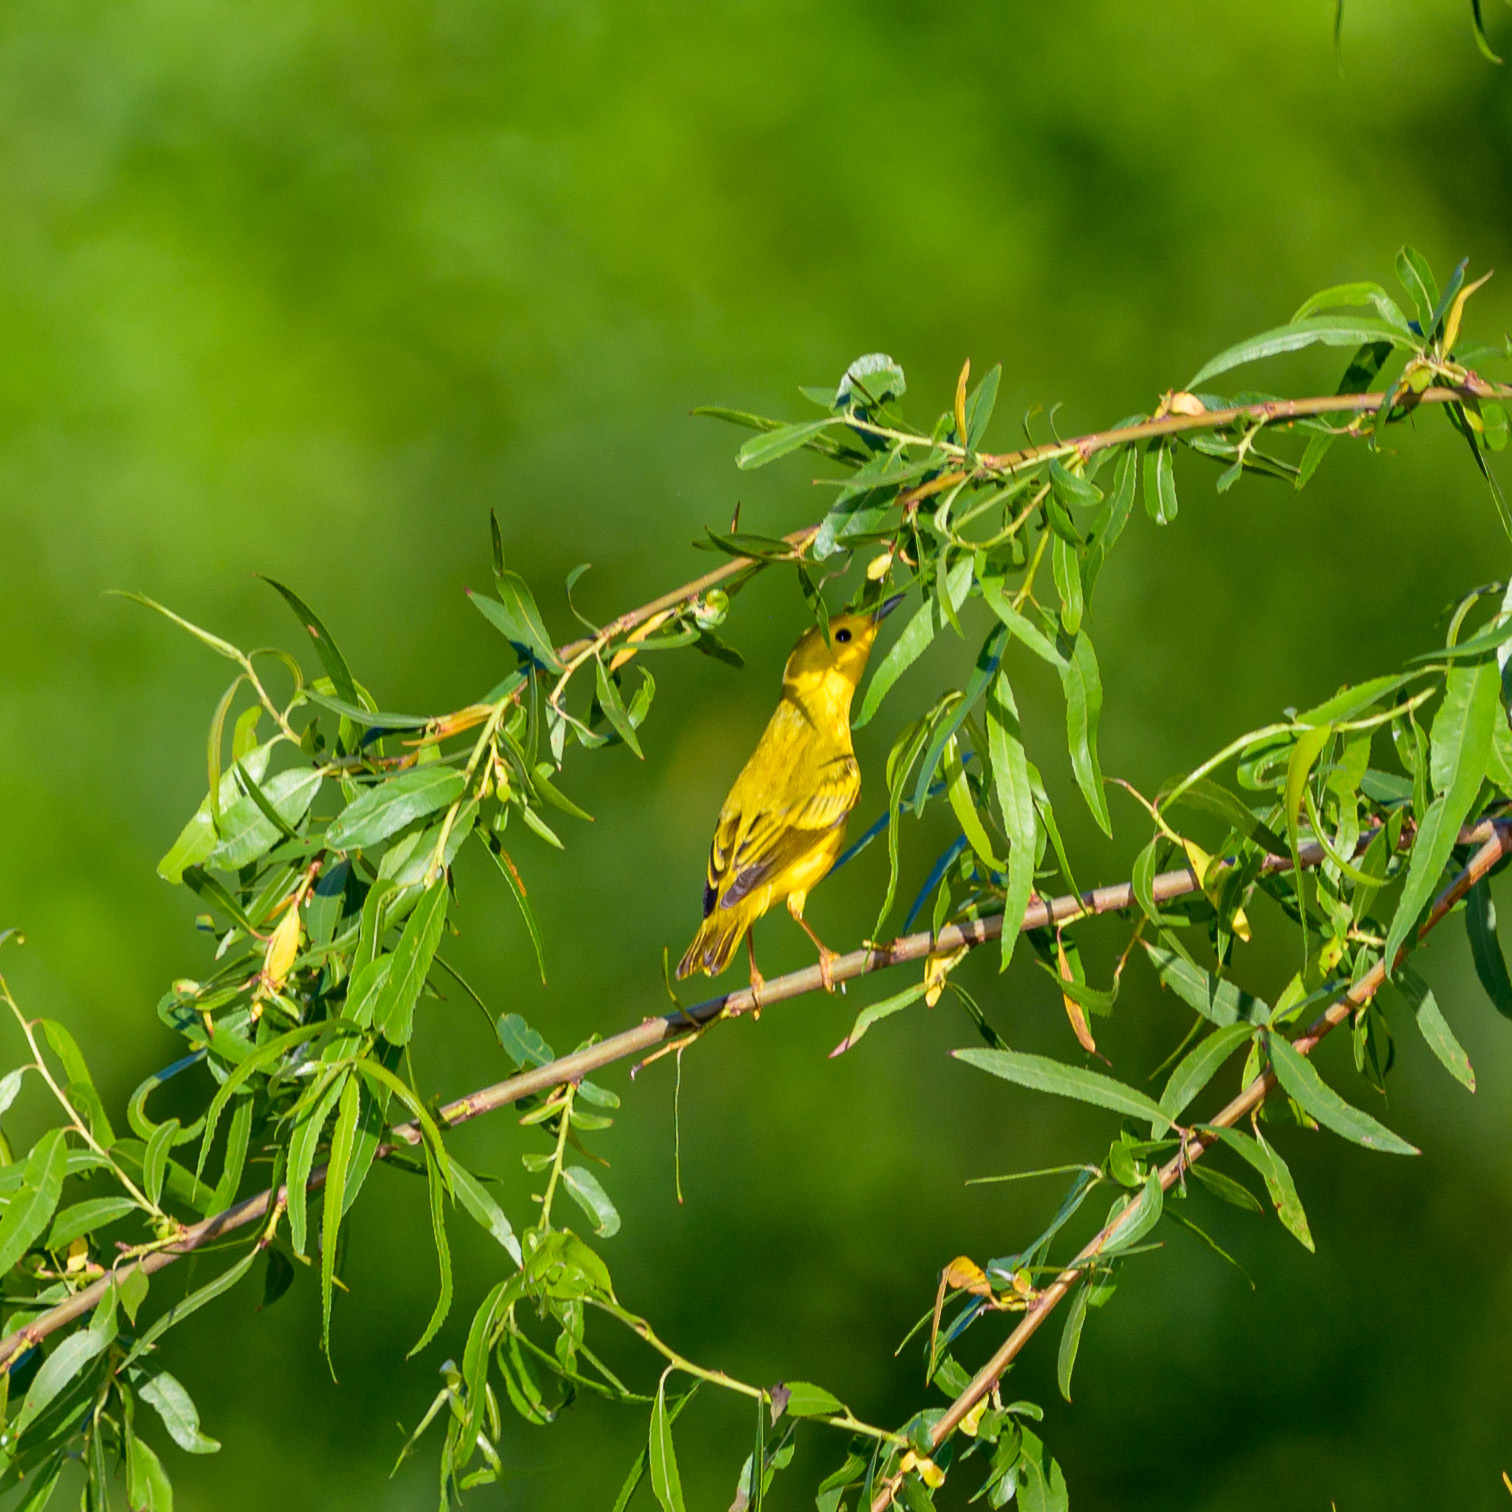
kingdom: Animalia
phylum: Chordata
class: Aves
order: Passeriformes
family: Parulidae
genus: Setophaga
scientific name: Setophaga petechia
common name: Yellow warbler
